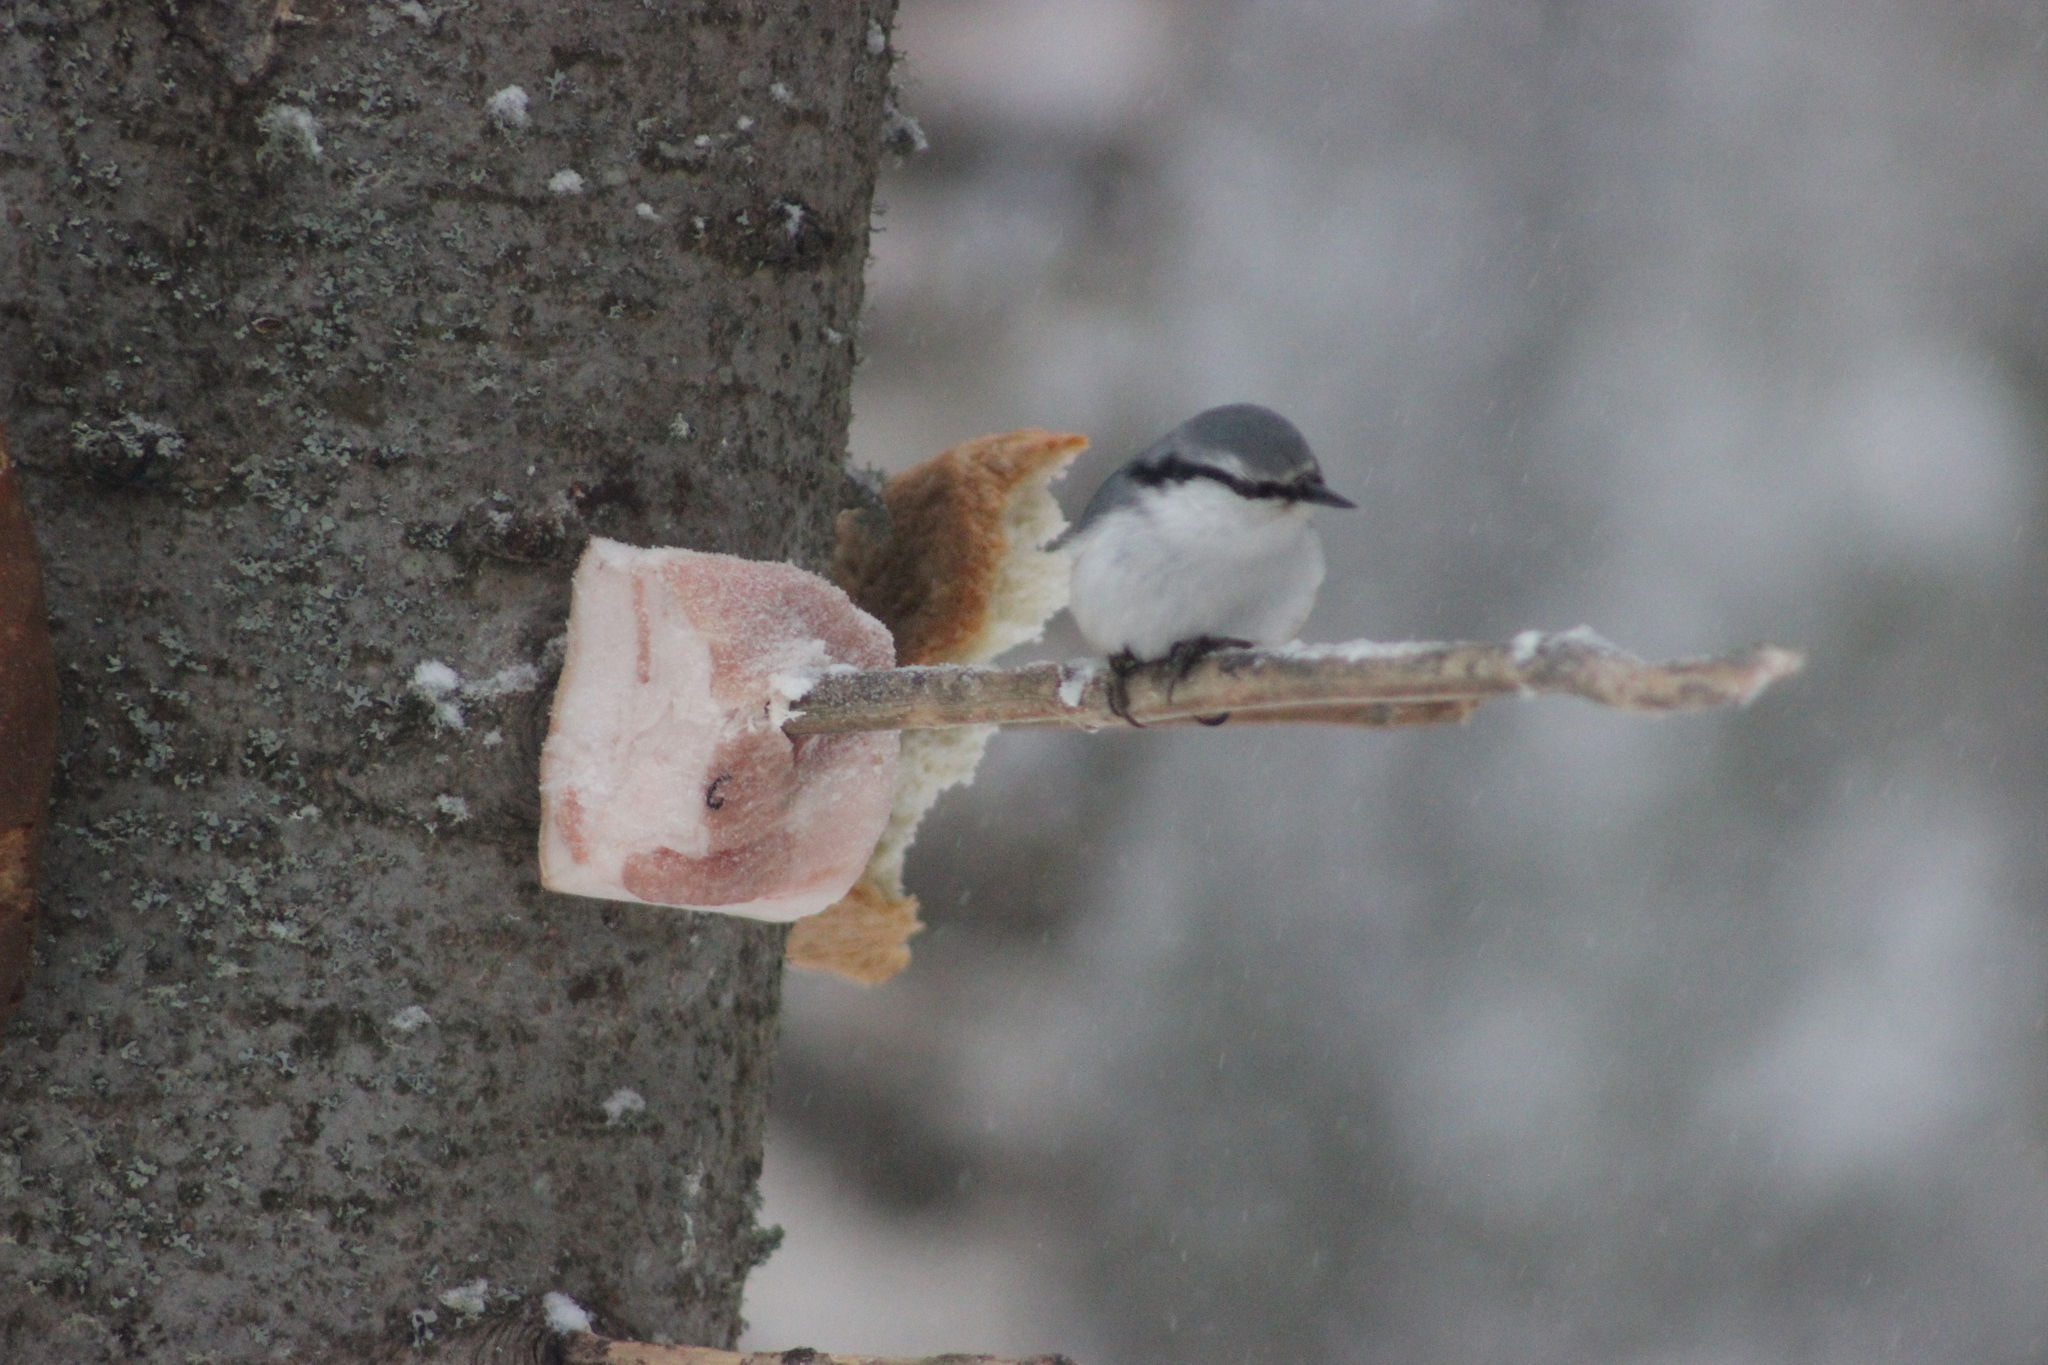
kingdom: Animalia
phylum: Chordata
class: Aves
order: Passeriformes
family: Sittidae
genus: Sitta
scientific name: Sitta europaea
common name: Eurasian nuthatch
